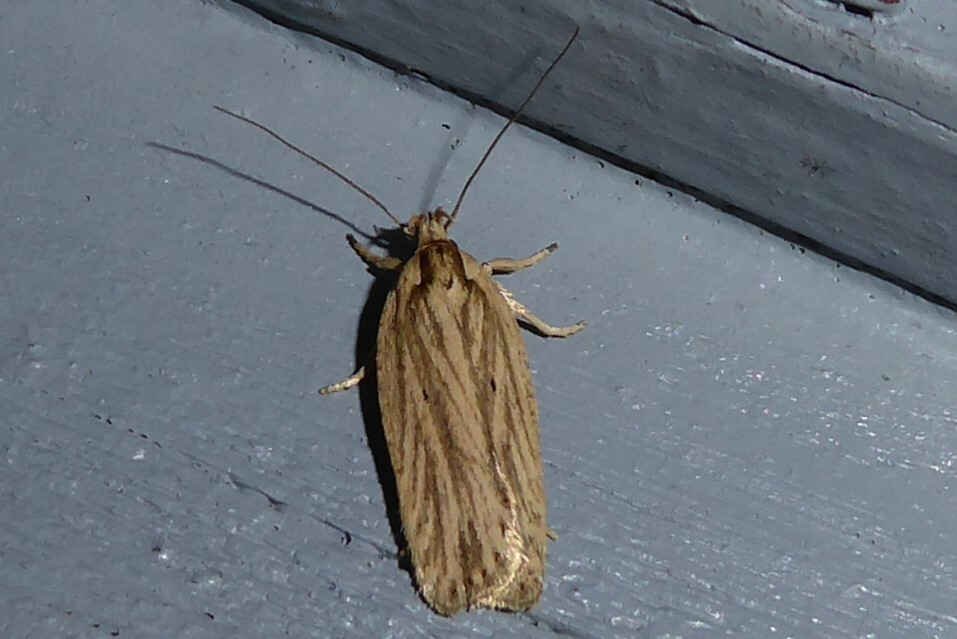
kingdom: Animalia
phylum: Arthropoda
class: Insecta
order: Lepidoptera
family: Depressariidae
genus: Agonopterix
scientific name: Agonopterix
